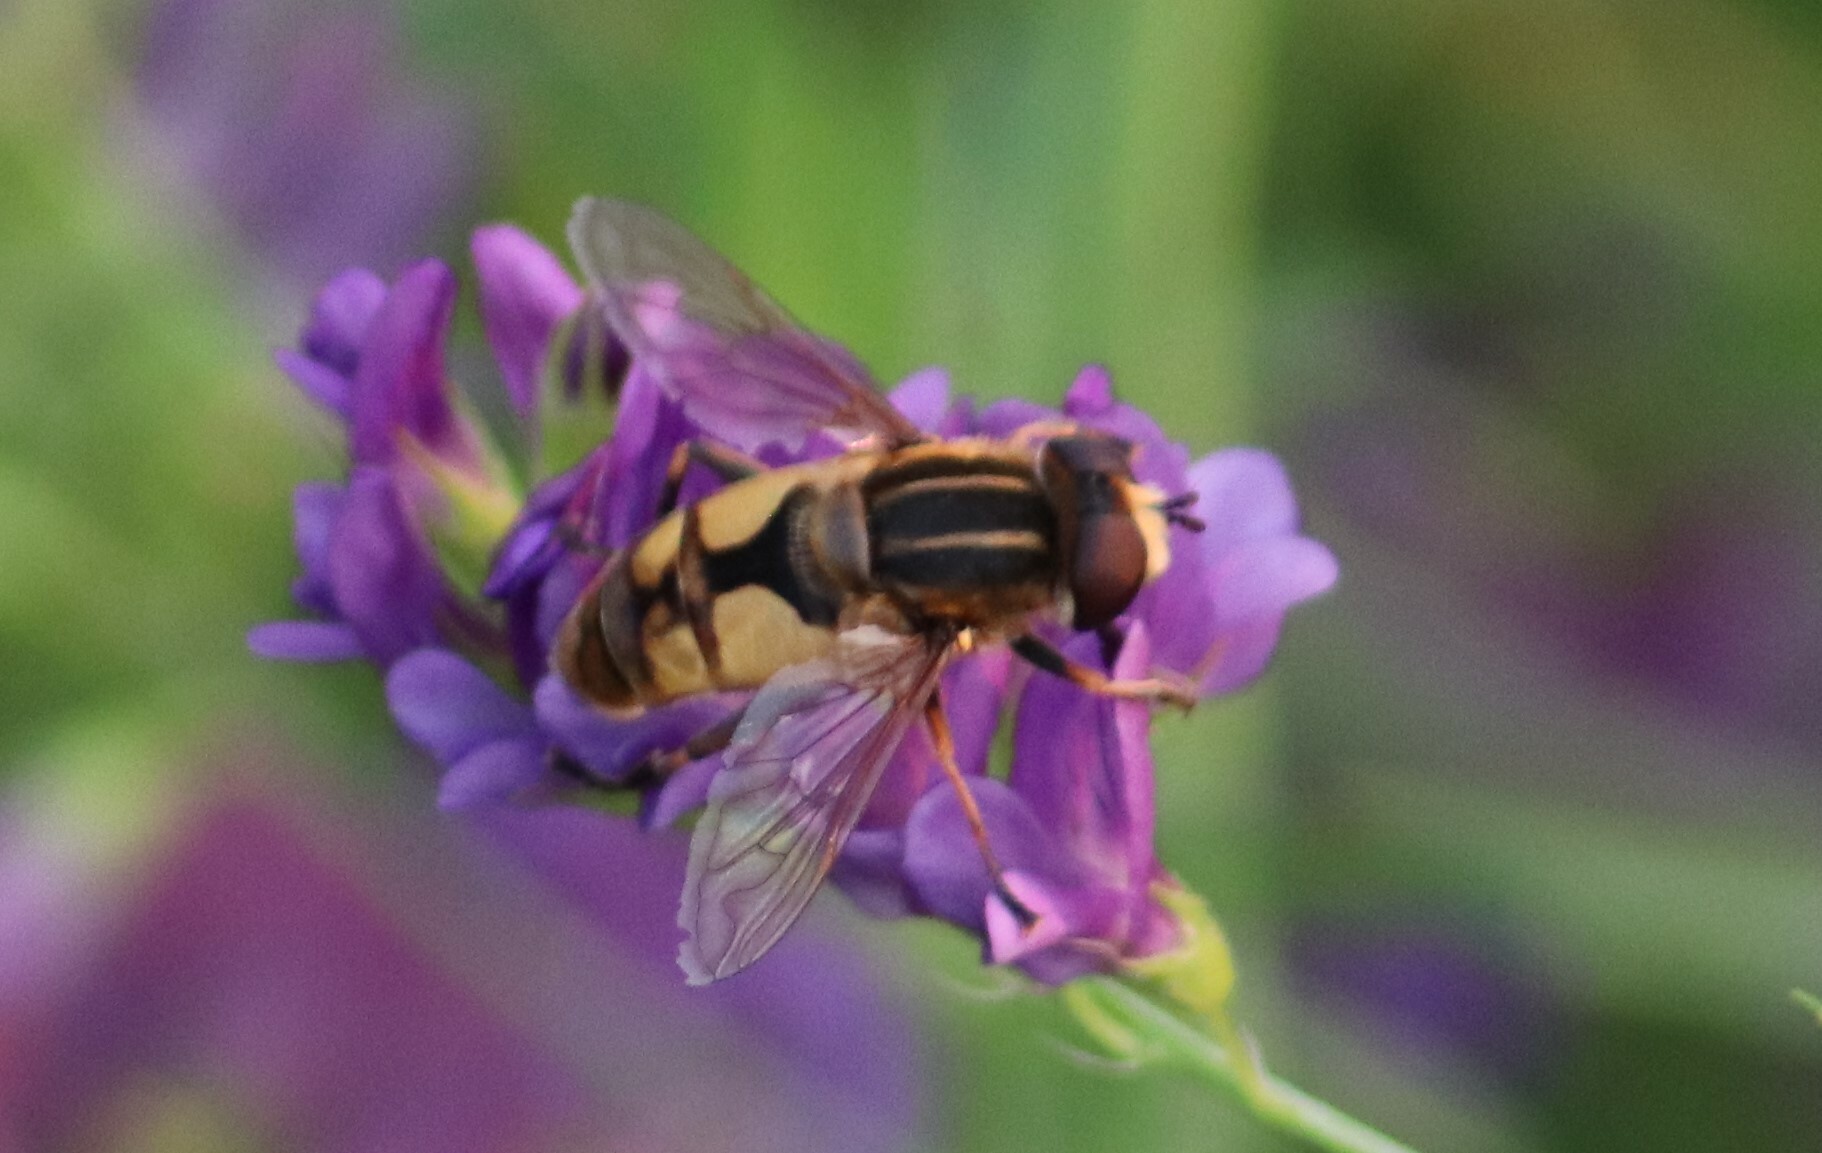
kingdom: Animalia
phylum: Arthropoda
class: Insecta
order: Diptera
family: Syrphidae
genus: Helophilus
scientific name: Helophilus hybridus
